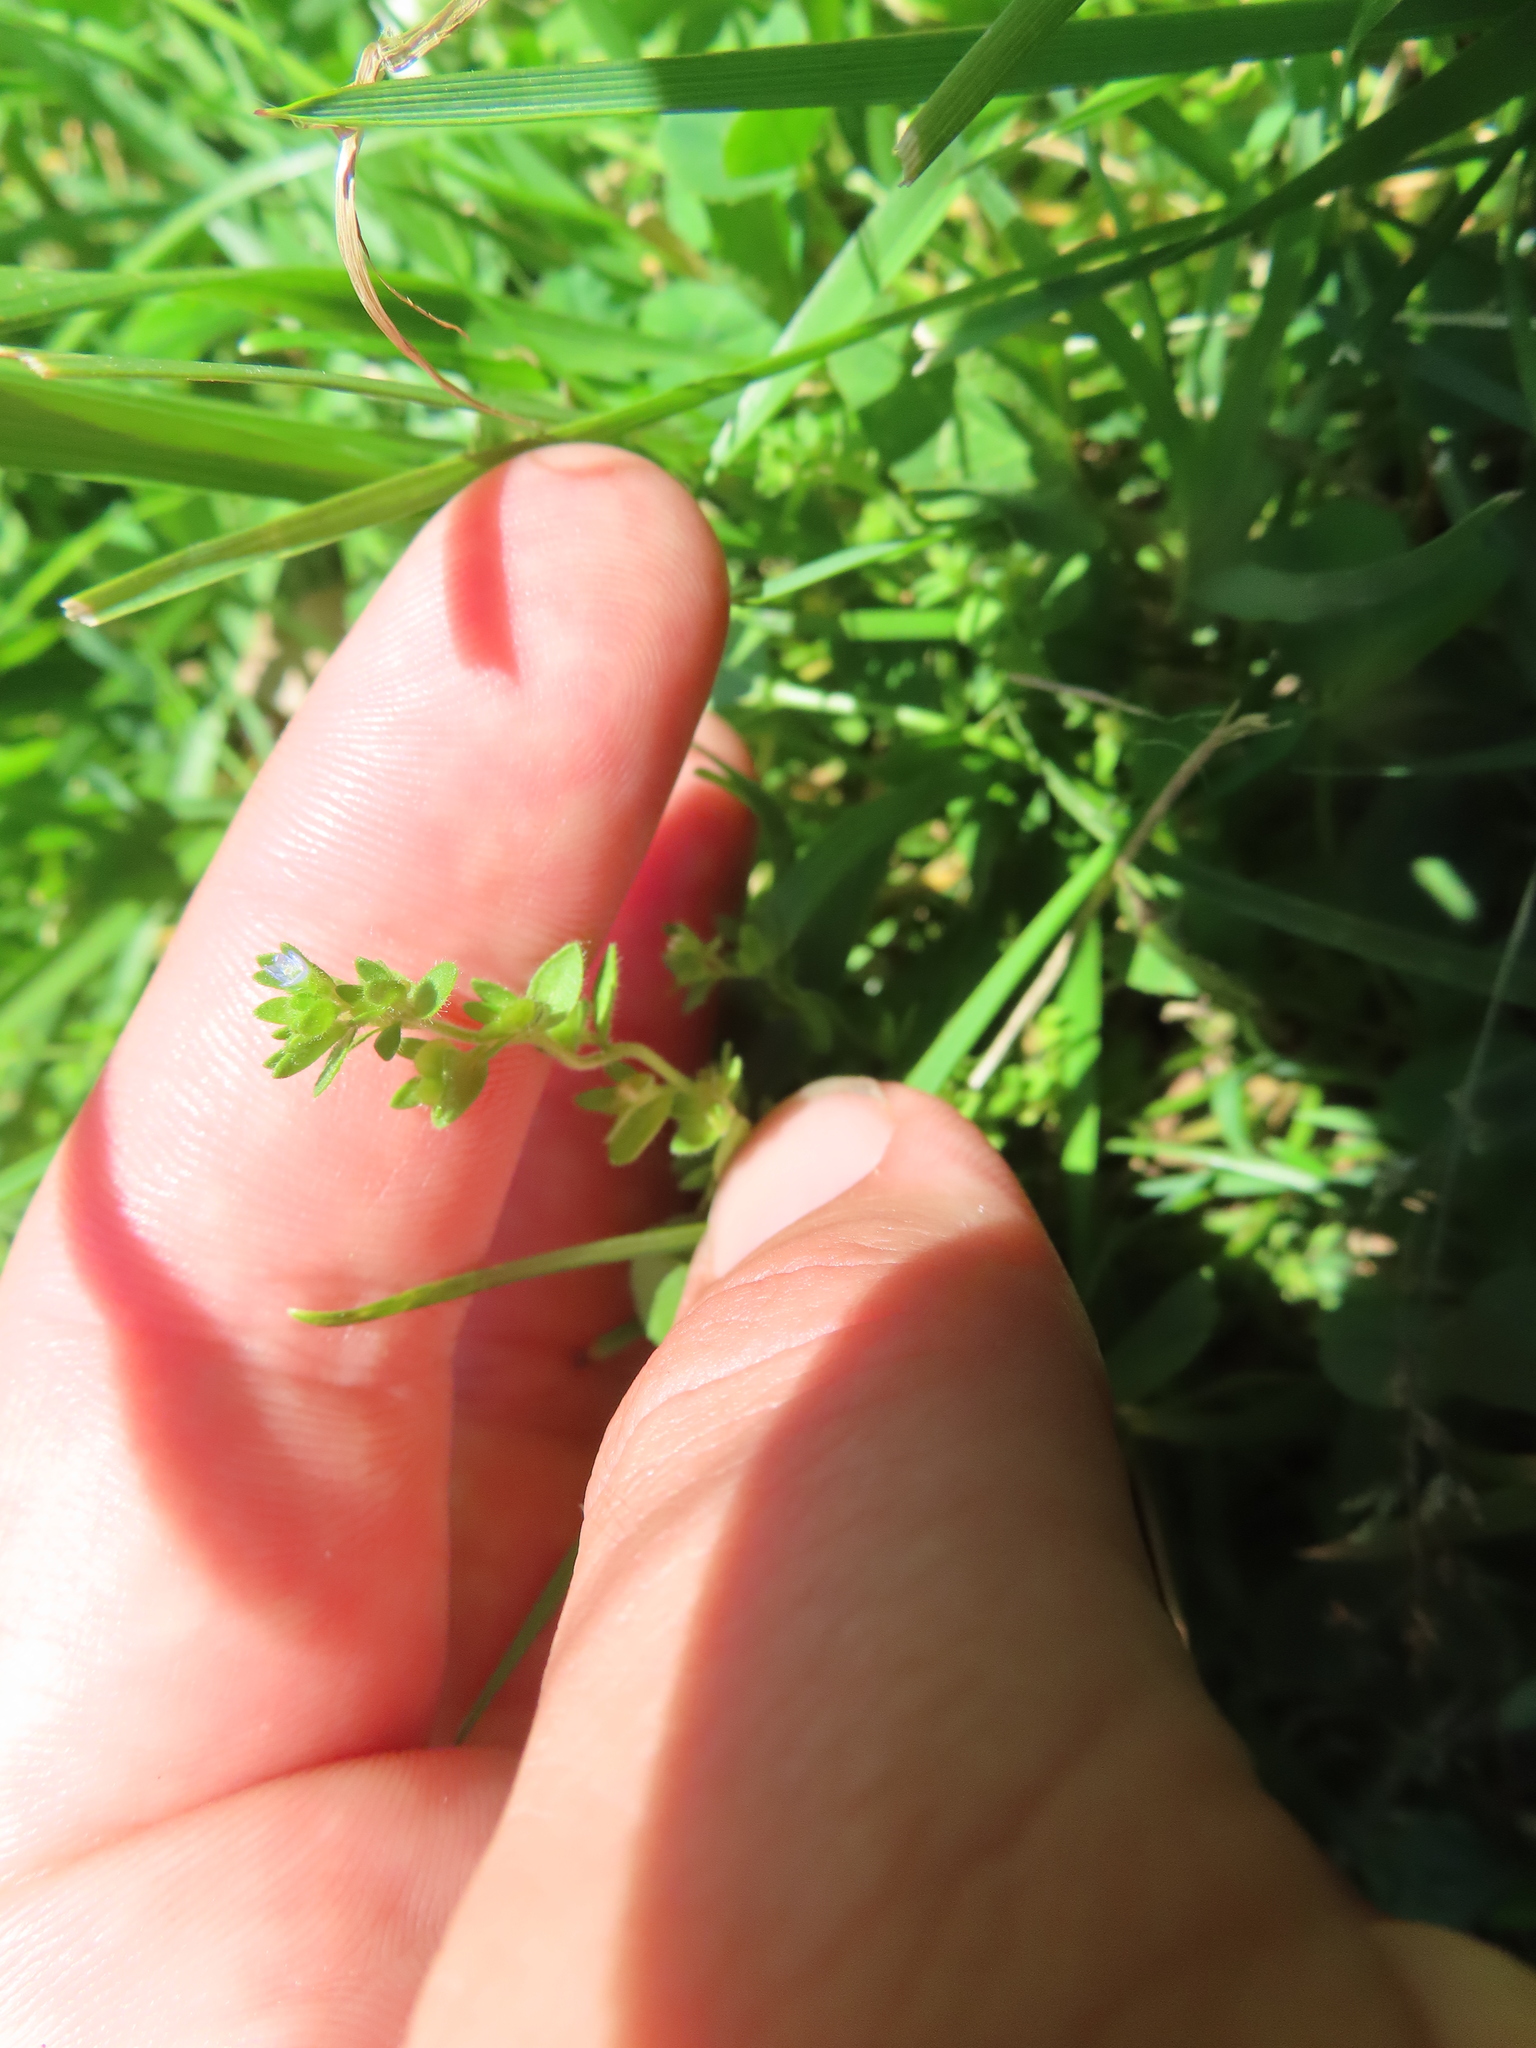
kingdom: Plantae
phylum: Tracheophyta
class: Magnoliopsida
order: Lamiales
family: Plantaginaceae
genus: Veronica
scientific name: Veronica arvensis
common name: Corn speedwell
